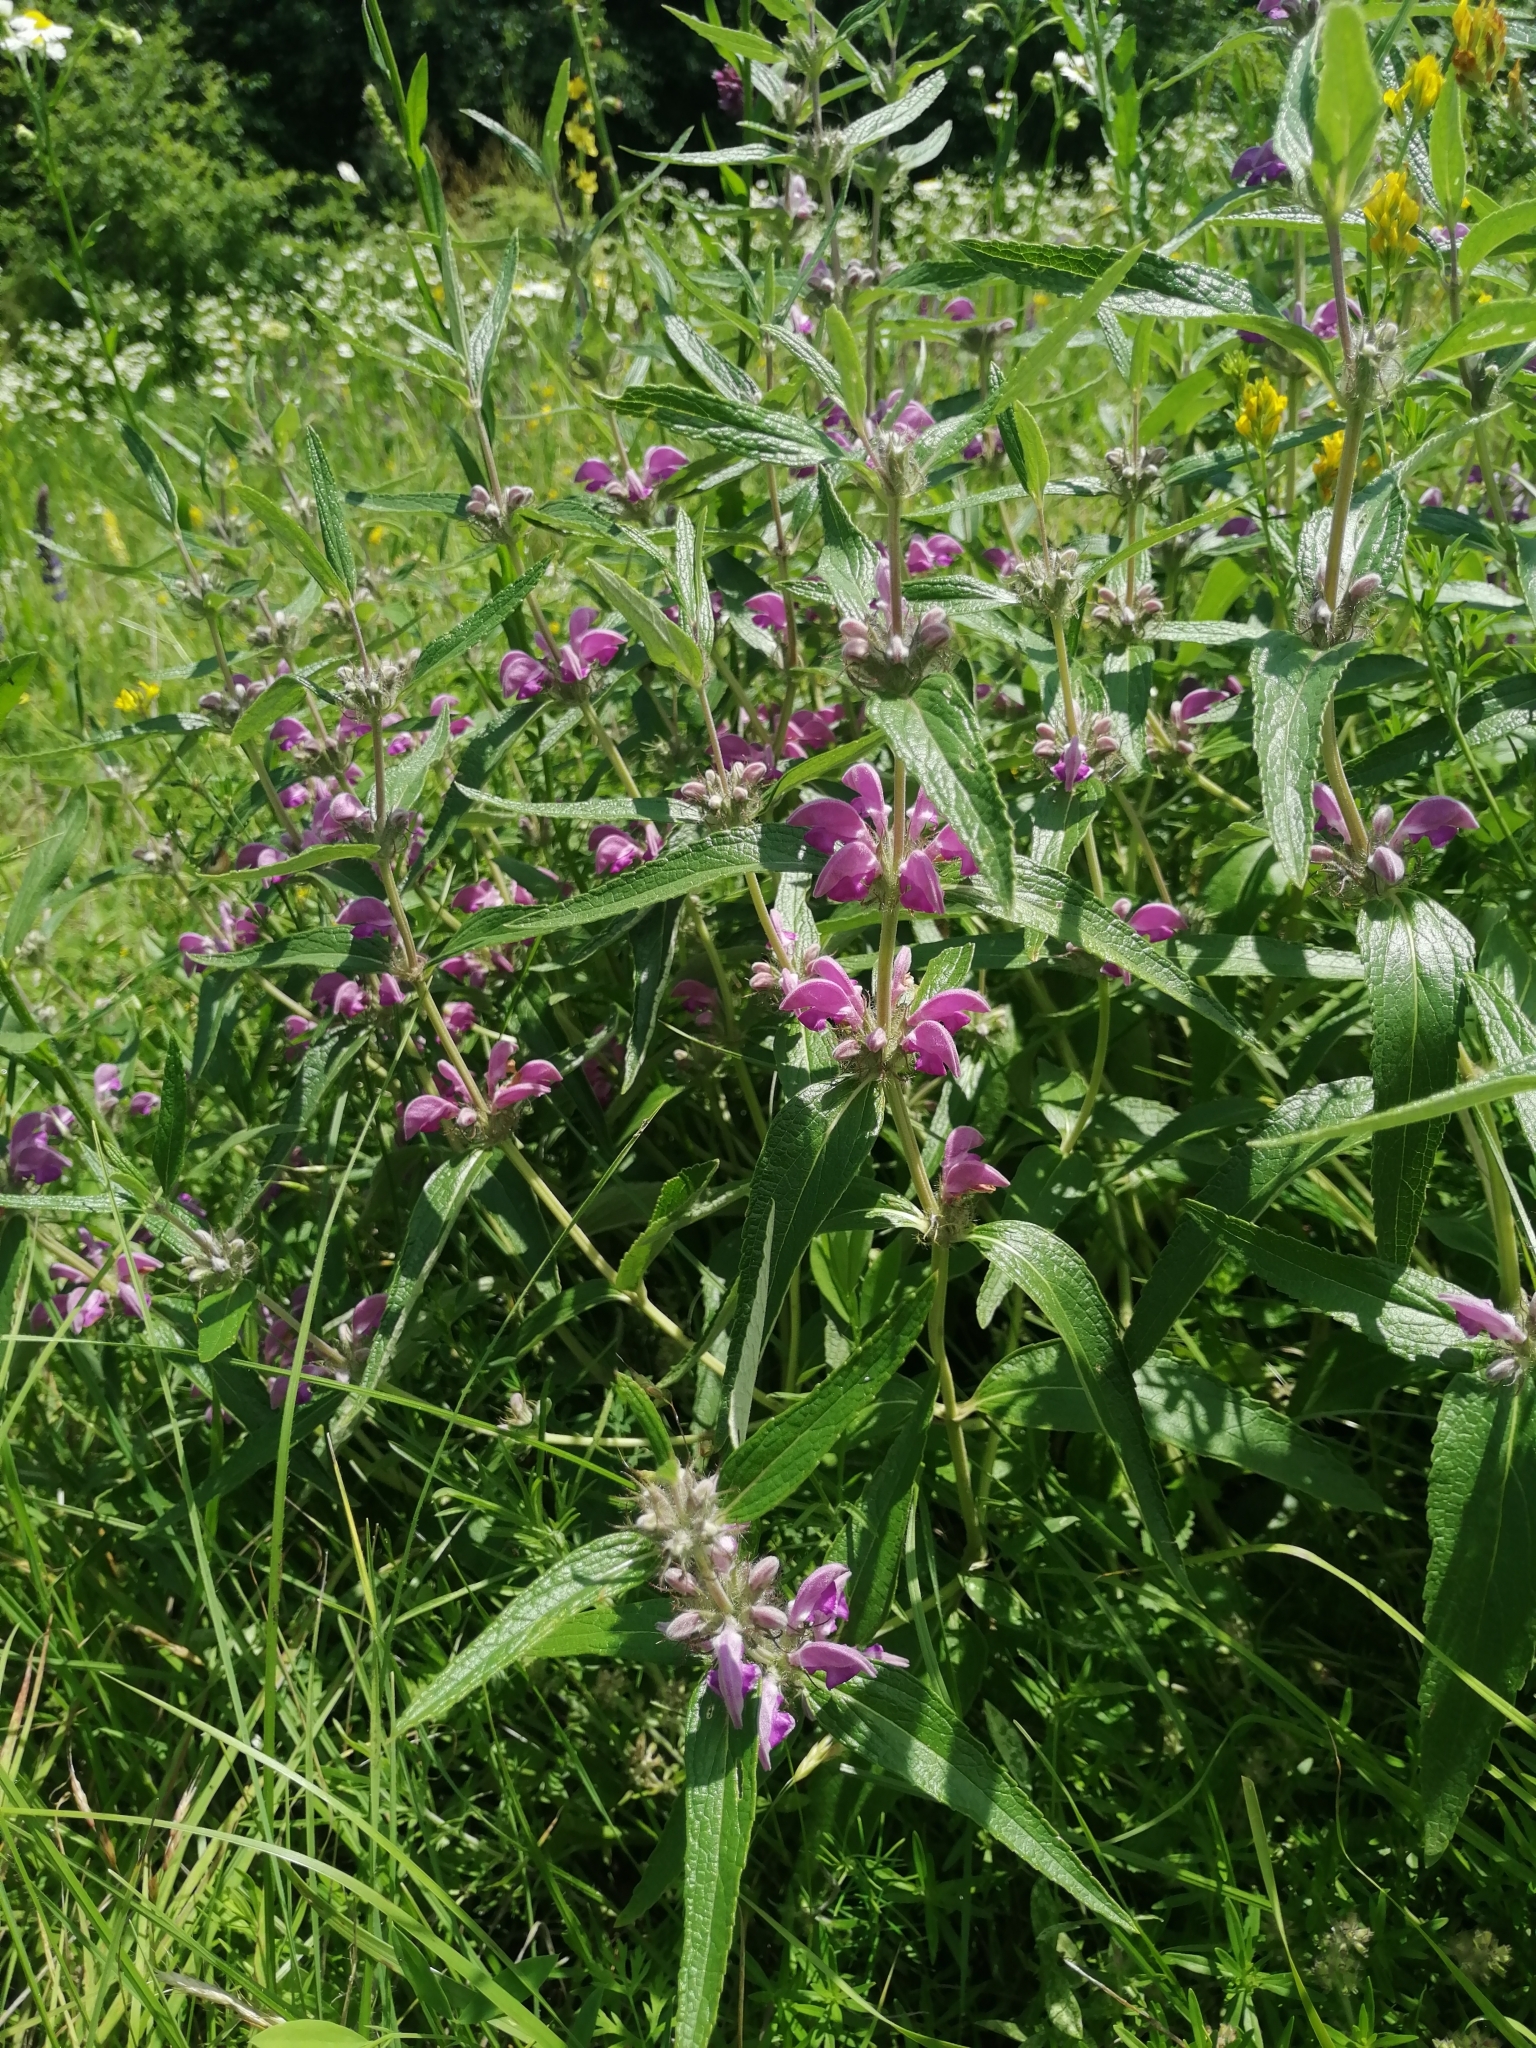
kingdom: Plantae
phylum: Tracheophyta
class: Magnoliopsida
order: Lamiales
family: Lamiaceae
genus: Phlomis
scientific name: Phlomis herba-venti
